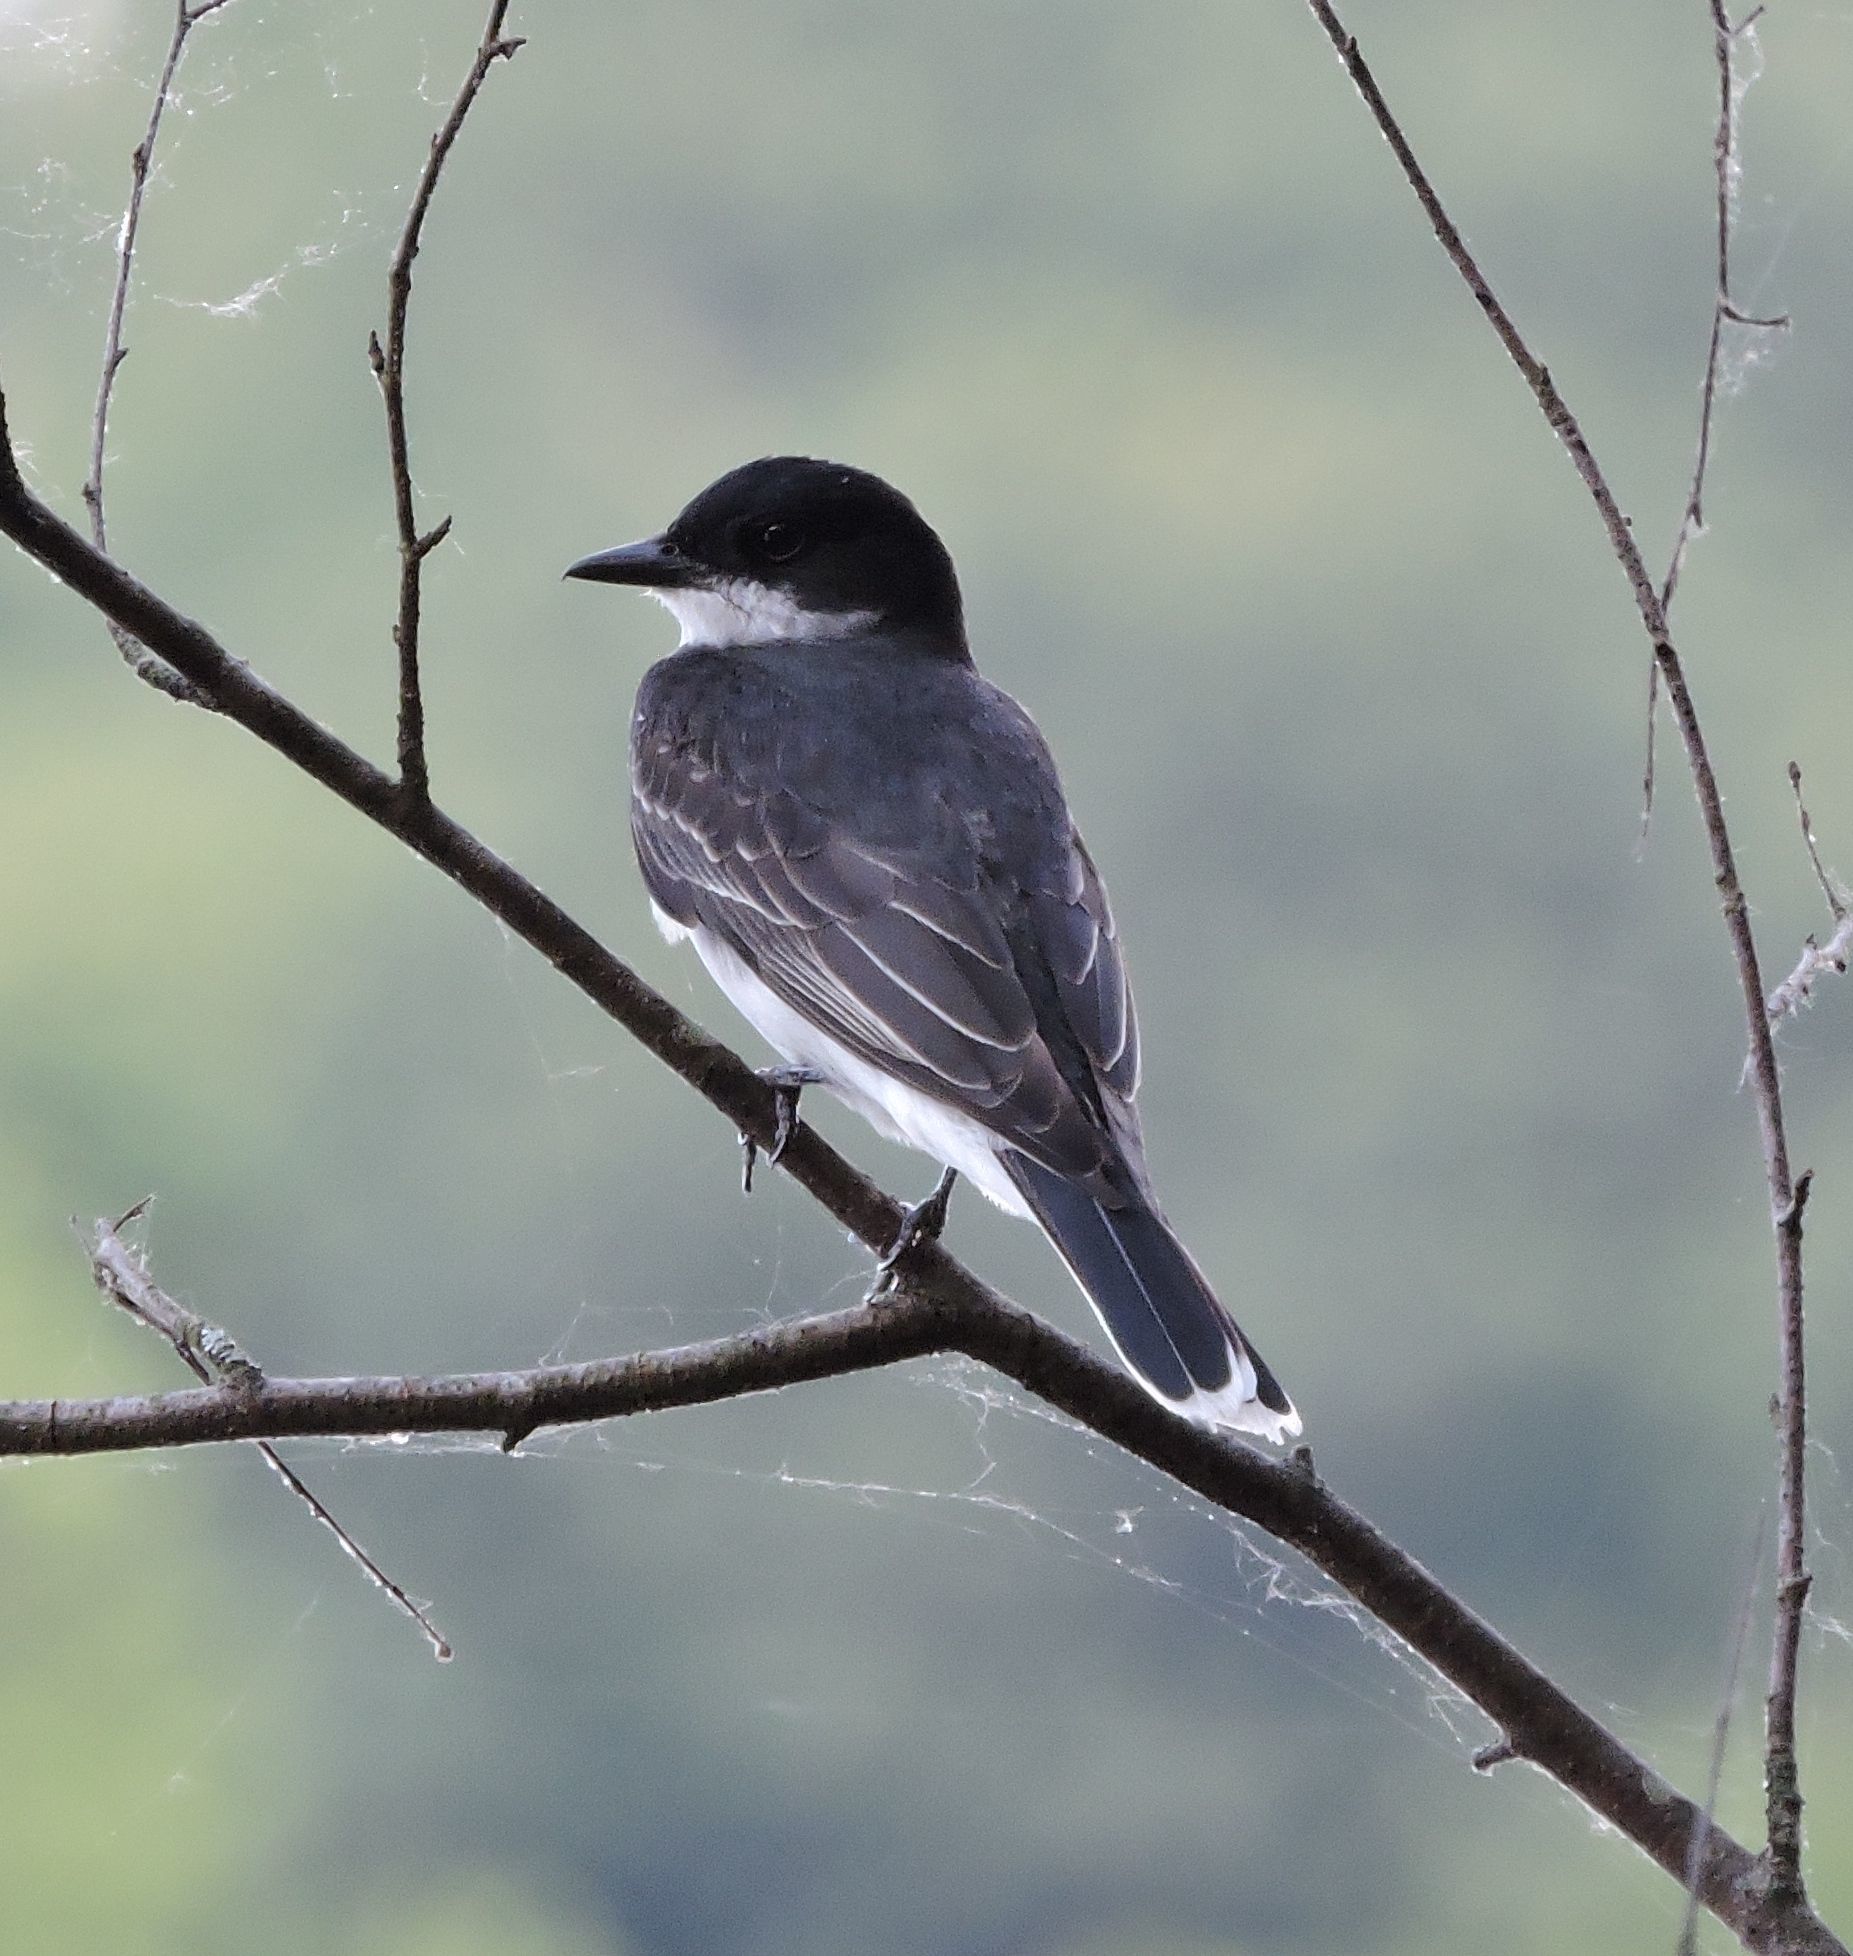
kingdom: Animalia
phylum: Chordata
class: Aves
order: Passeriformes
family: Tyrannidae
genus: Tyrannus
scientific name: Tyrannus tyrannus
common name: Eastern kingbird
